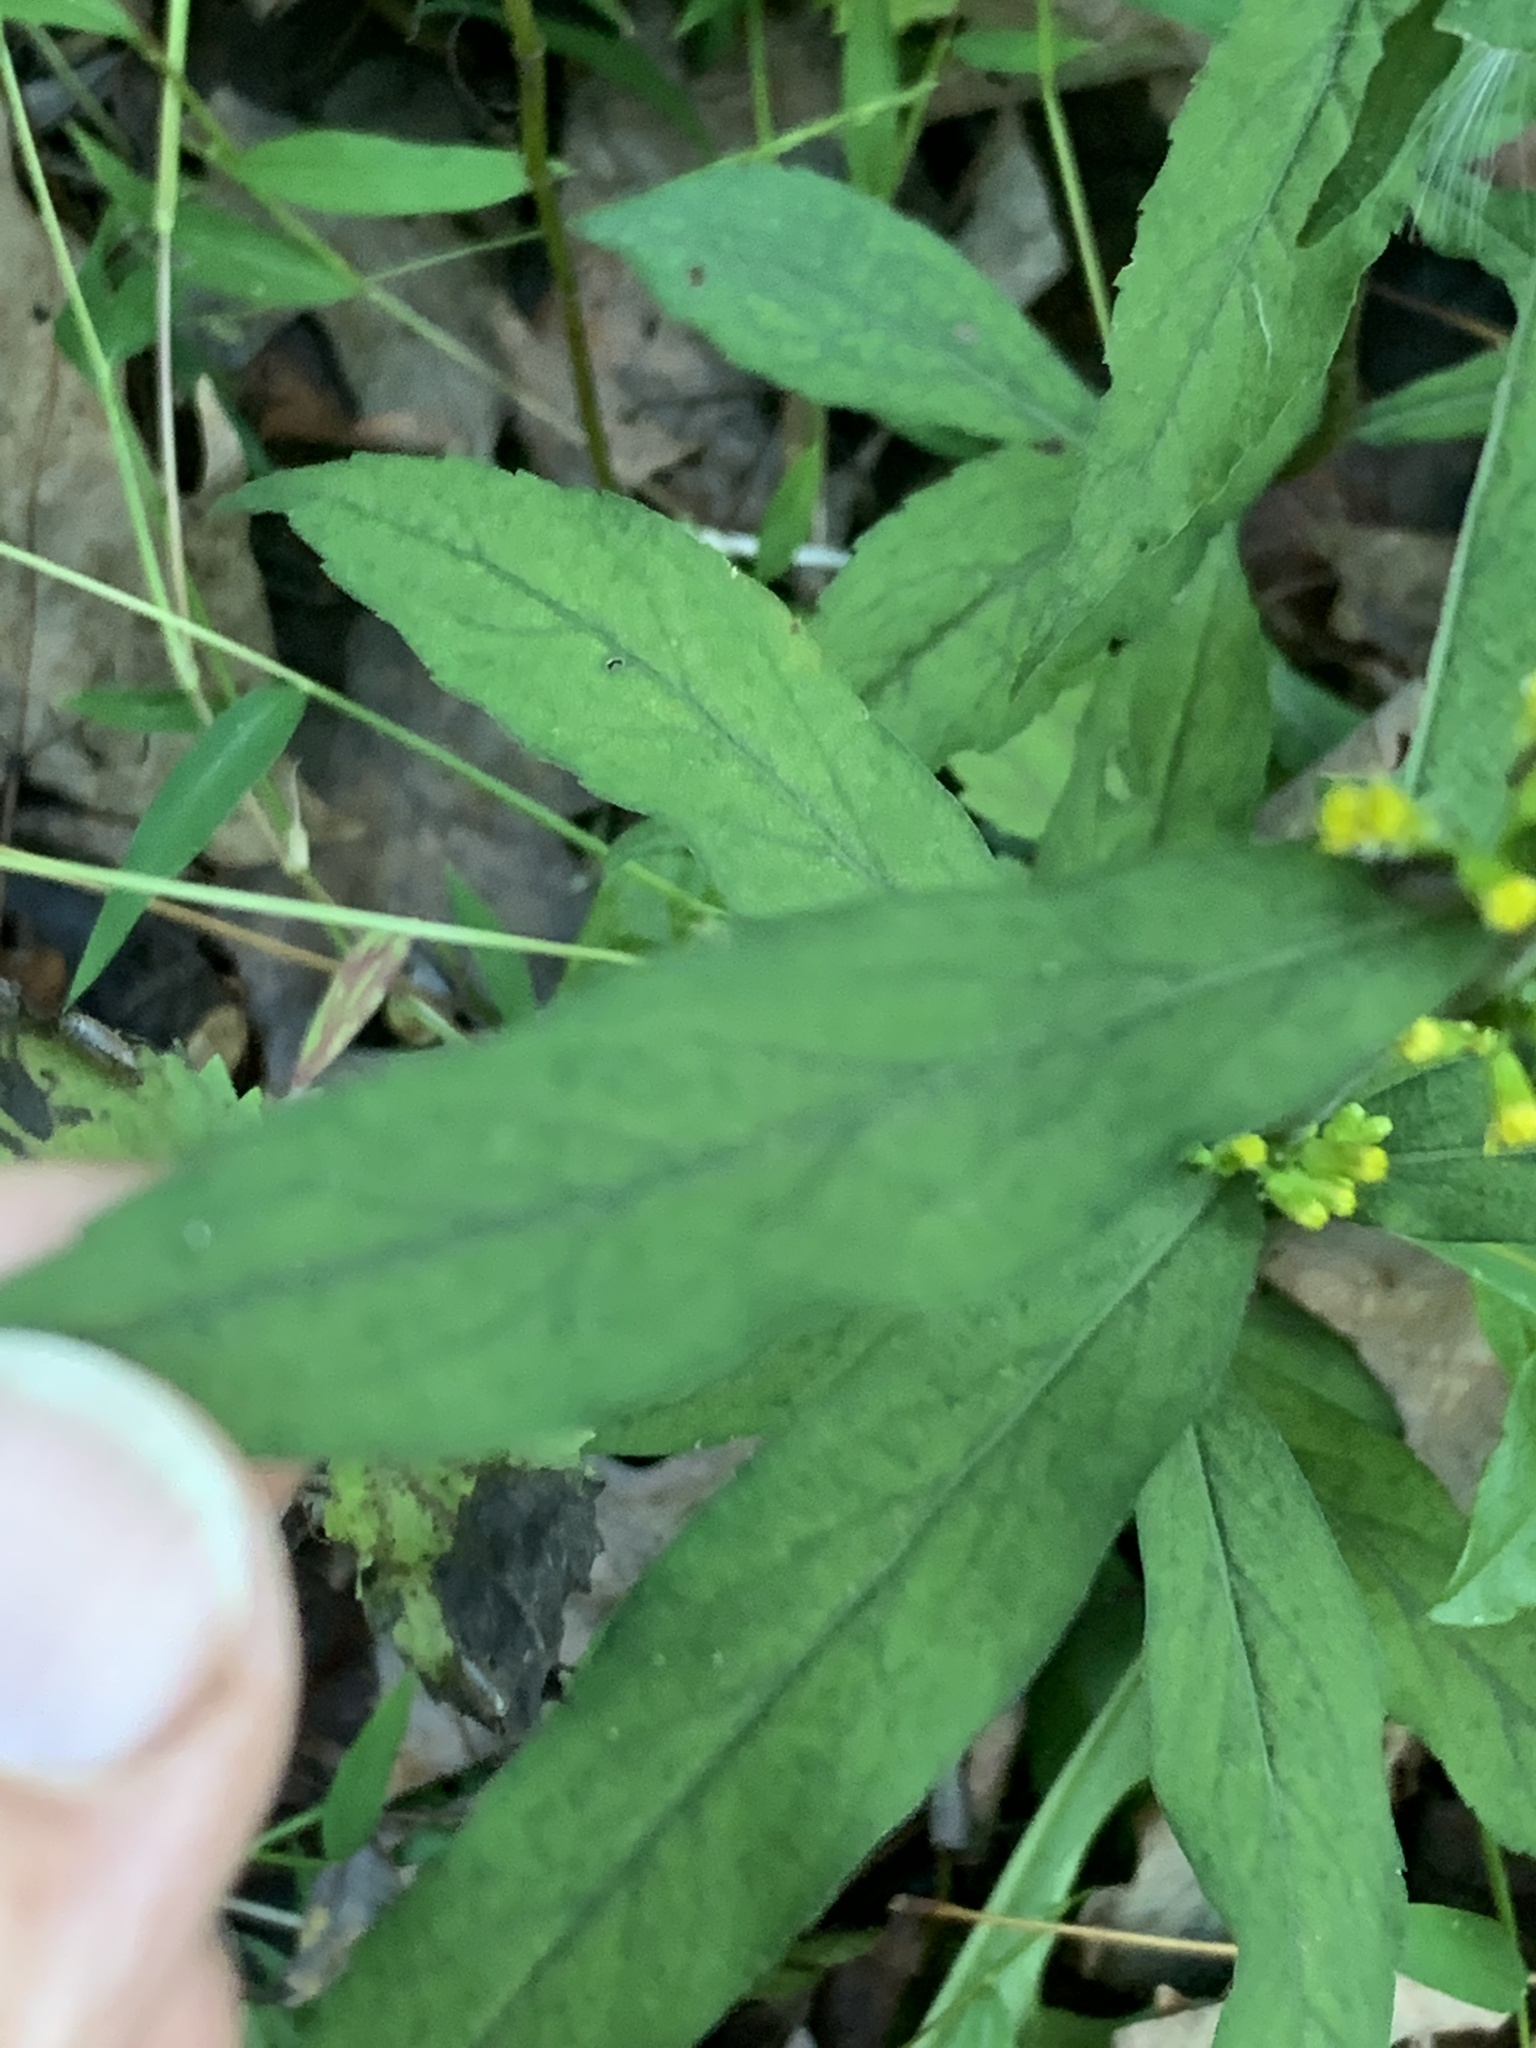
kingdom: Plantae
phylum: Tracheophyta
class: Magnoliopsida
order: Asterales
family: Asteraceae
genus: Solidago
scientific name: Solidago caesia
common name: Woodland goldenrod
